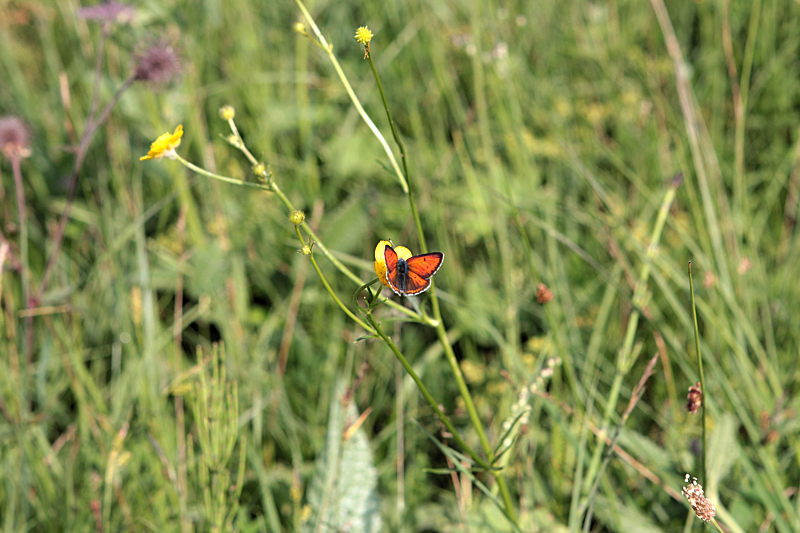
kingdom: Animalia
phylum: Arthropoda
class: Insecta
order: Lepidoptera
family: Lycaenidae
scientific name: Lycaenidae
